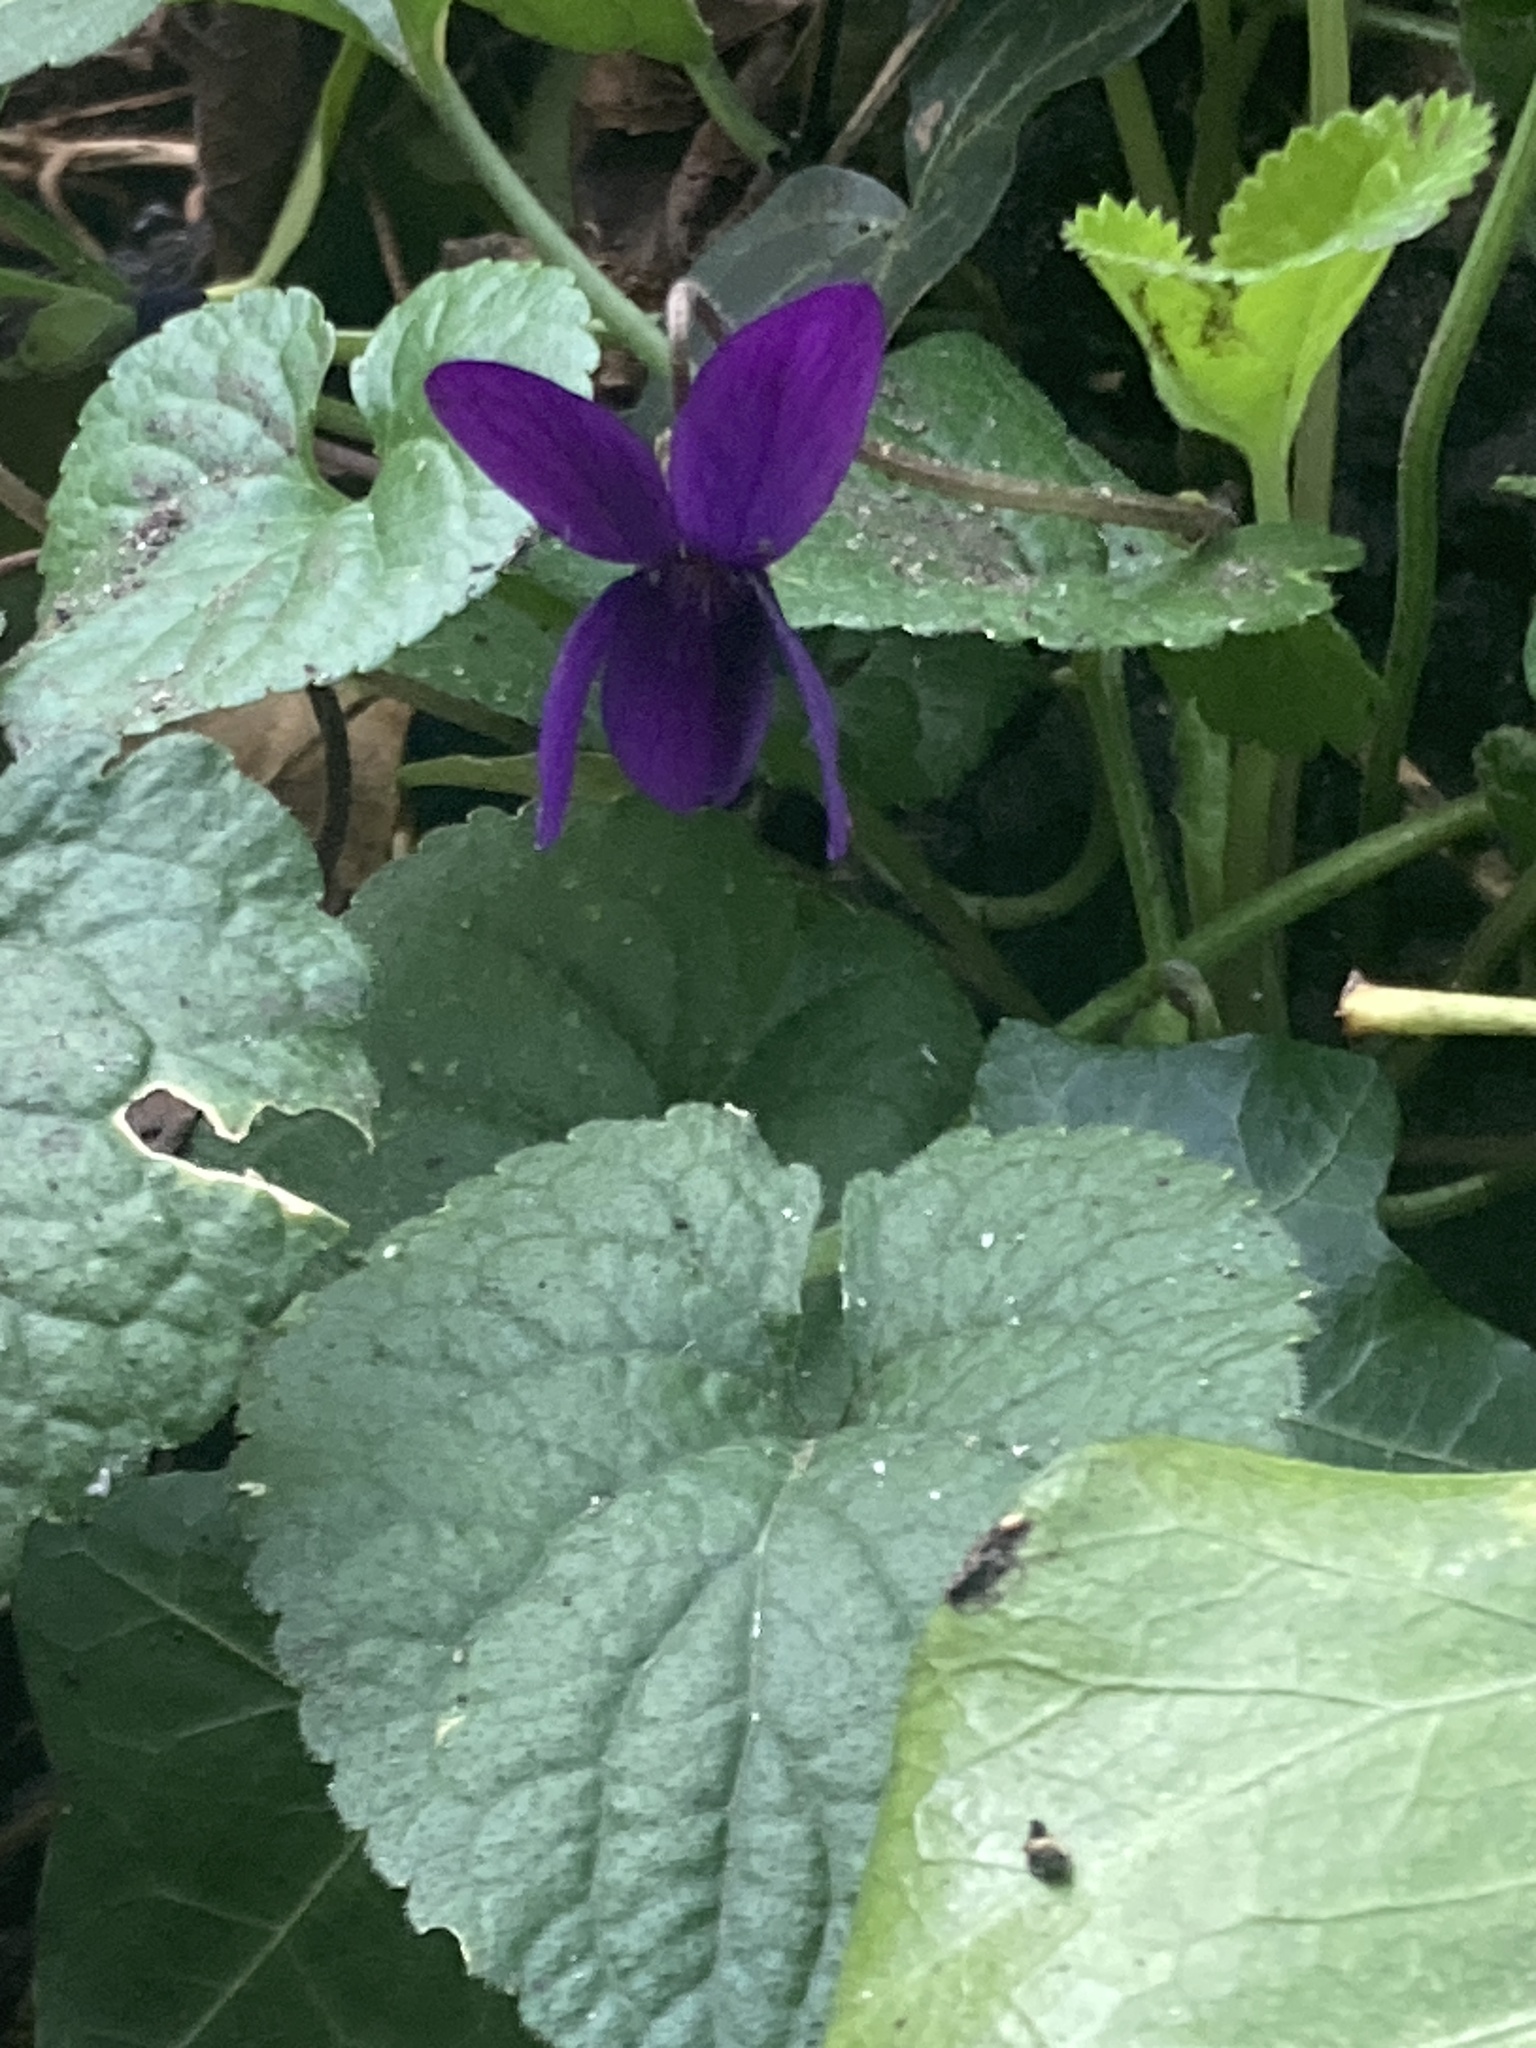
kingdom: Plantae
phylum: Tracheophyta
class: Magnoliopsida
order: Malpighiales
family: Violaceae
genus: Viola
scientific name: Viola odorata
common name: Sweet violet
